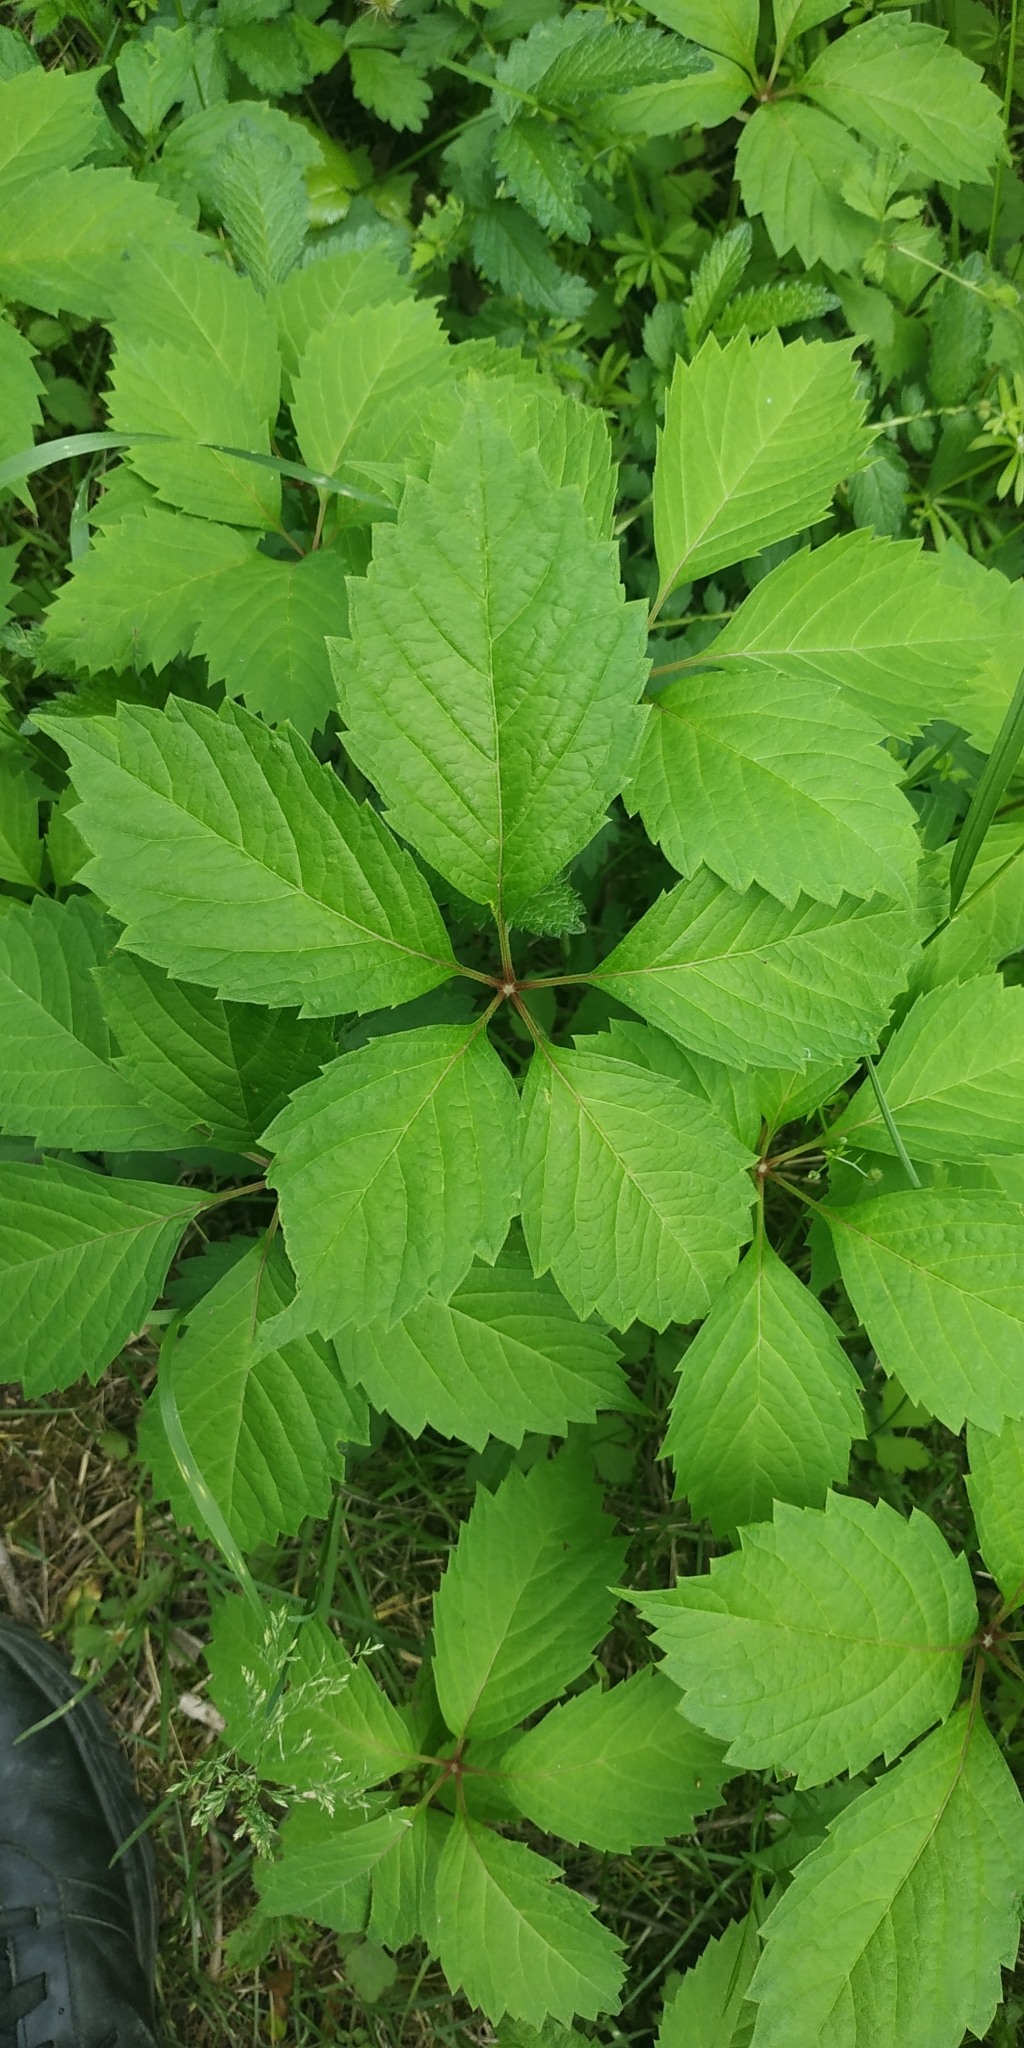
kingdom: Plantae
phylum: Tracheophyta
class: Magnoliopsida
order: Vitales
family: Vitaceae
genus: Parthenocissus
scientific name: Parthenocissus inserta
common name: False virginia-creeper
